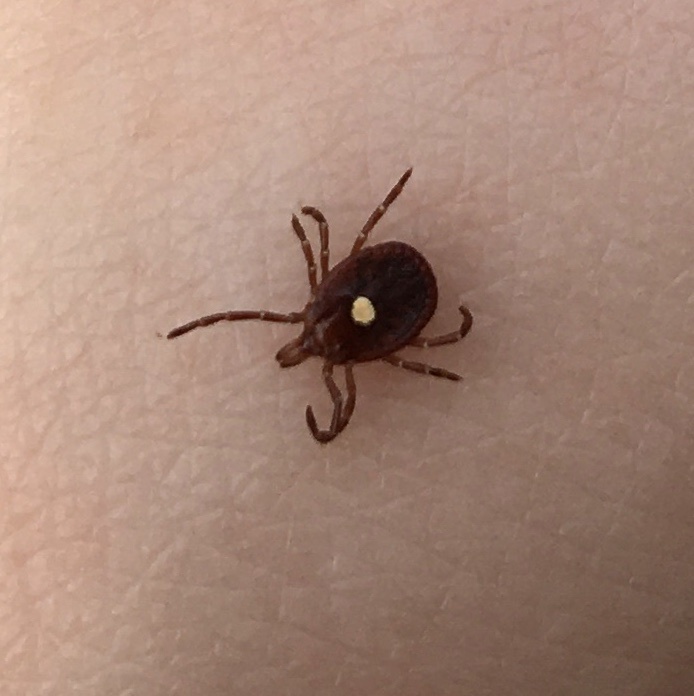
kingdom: Animalia
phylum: Arthropoda
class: Arachnida
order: Ixodida
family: Ixodidae
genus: Amblyomma
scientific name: Amblyomma americanum
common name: Lone star tick
